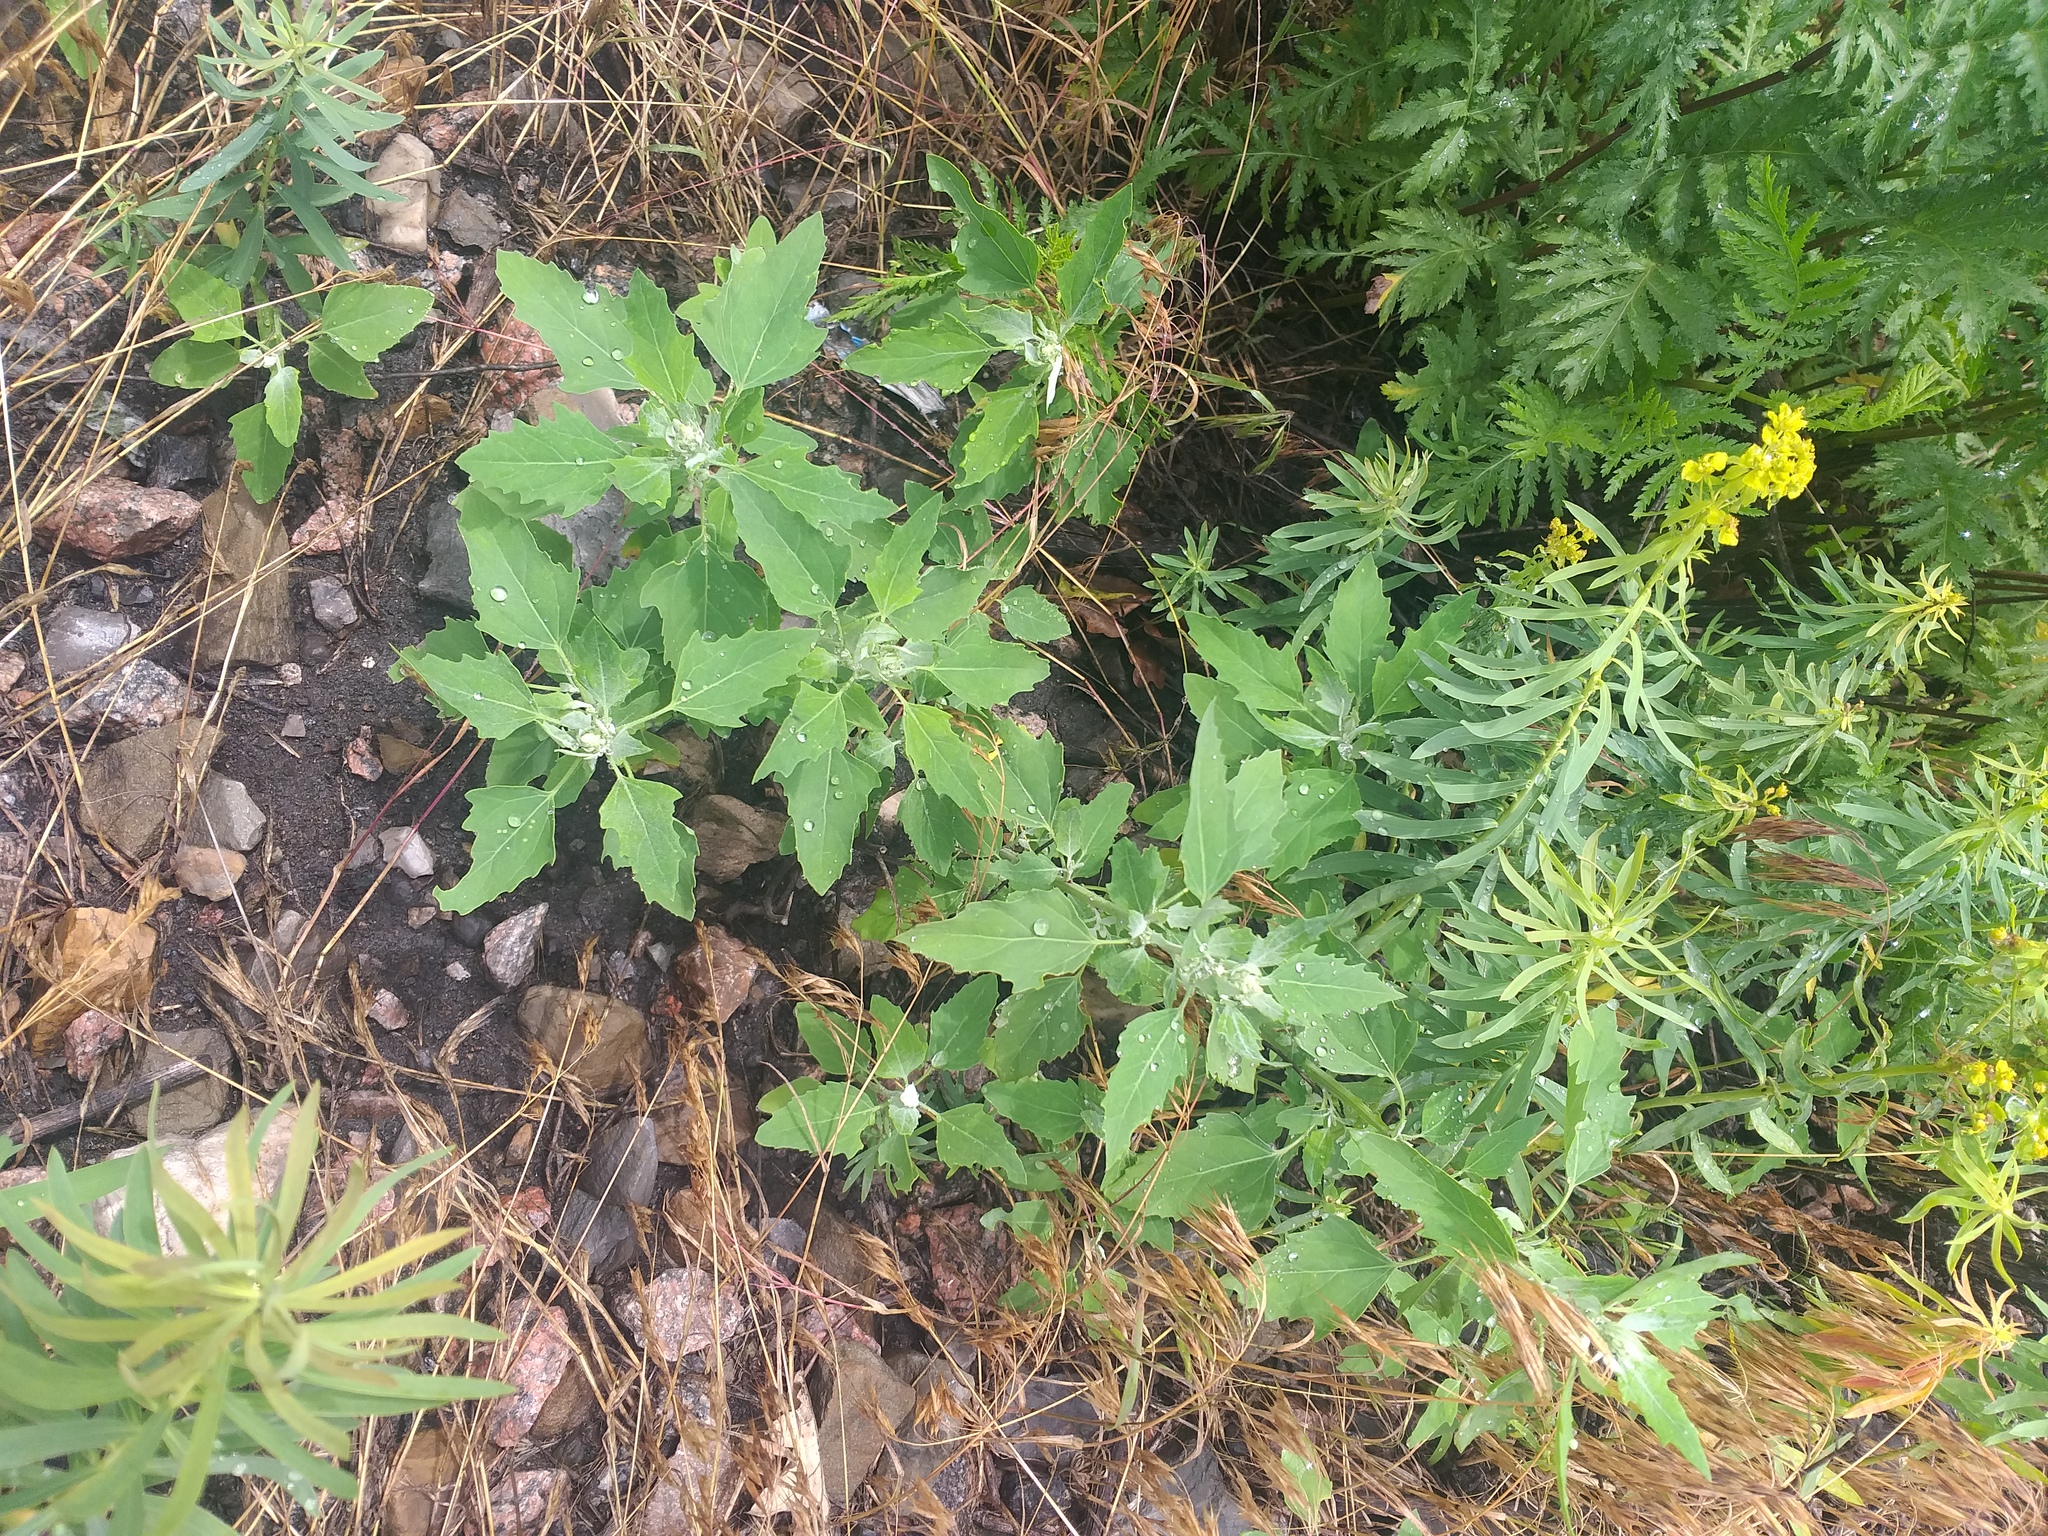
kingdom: Plantae
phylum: Tracheophyta
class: Magnoliopsida
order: Caryophyllales
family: Amaranthaceae
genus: Chenopodium
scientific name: Chenopodium album
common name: Fat-hen
